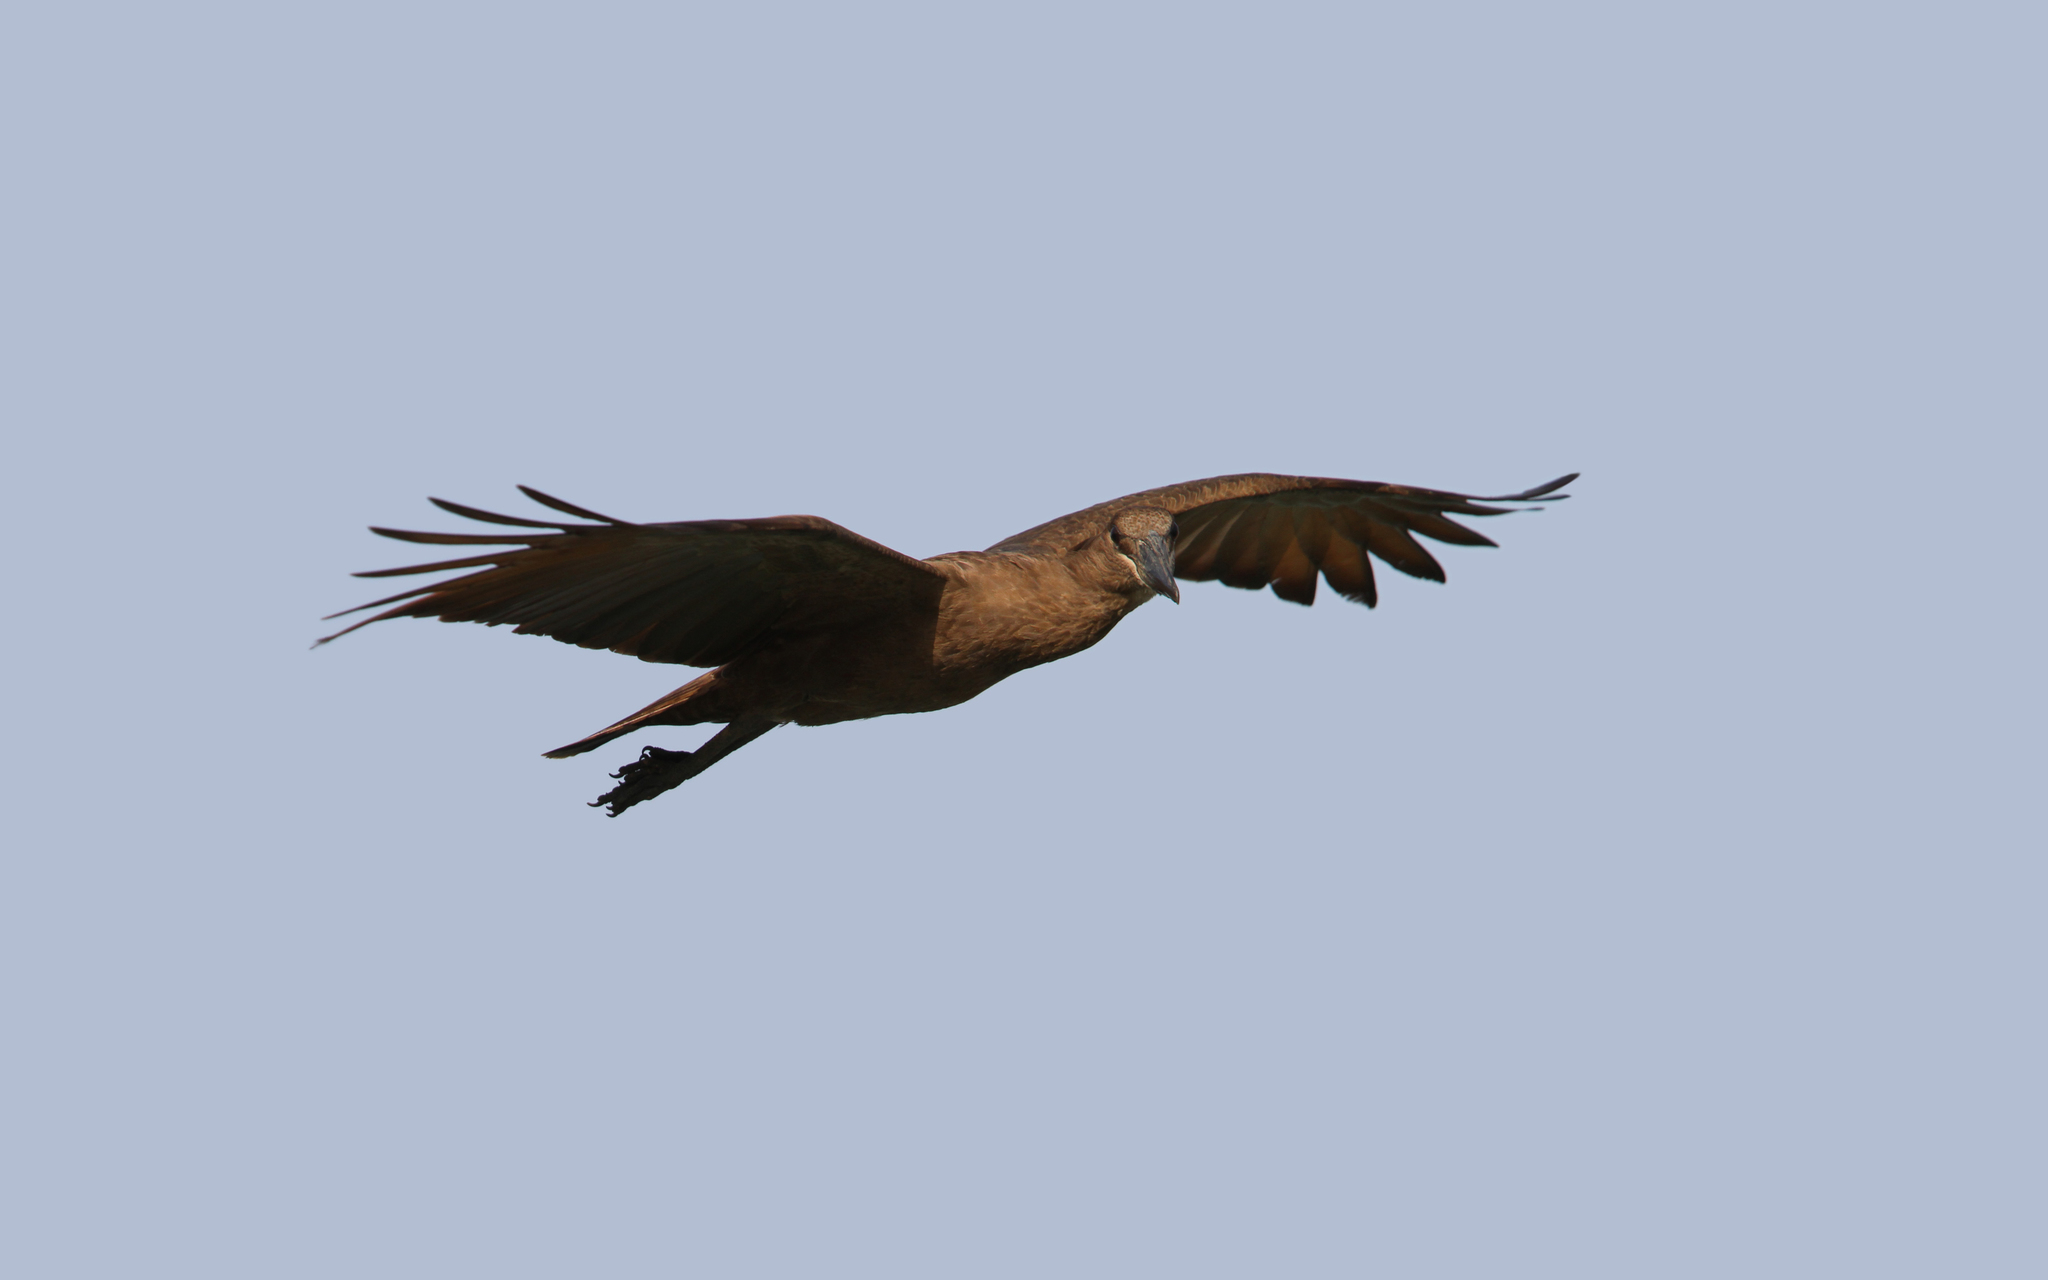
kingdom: Animalia
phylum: Chordata
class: Aves
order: Pelecaniformes
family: Scopidae
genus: Scopus
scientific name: Scopus umbretta
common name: Hamerkop
